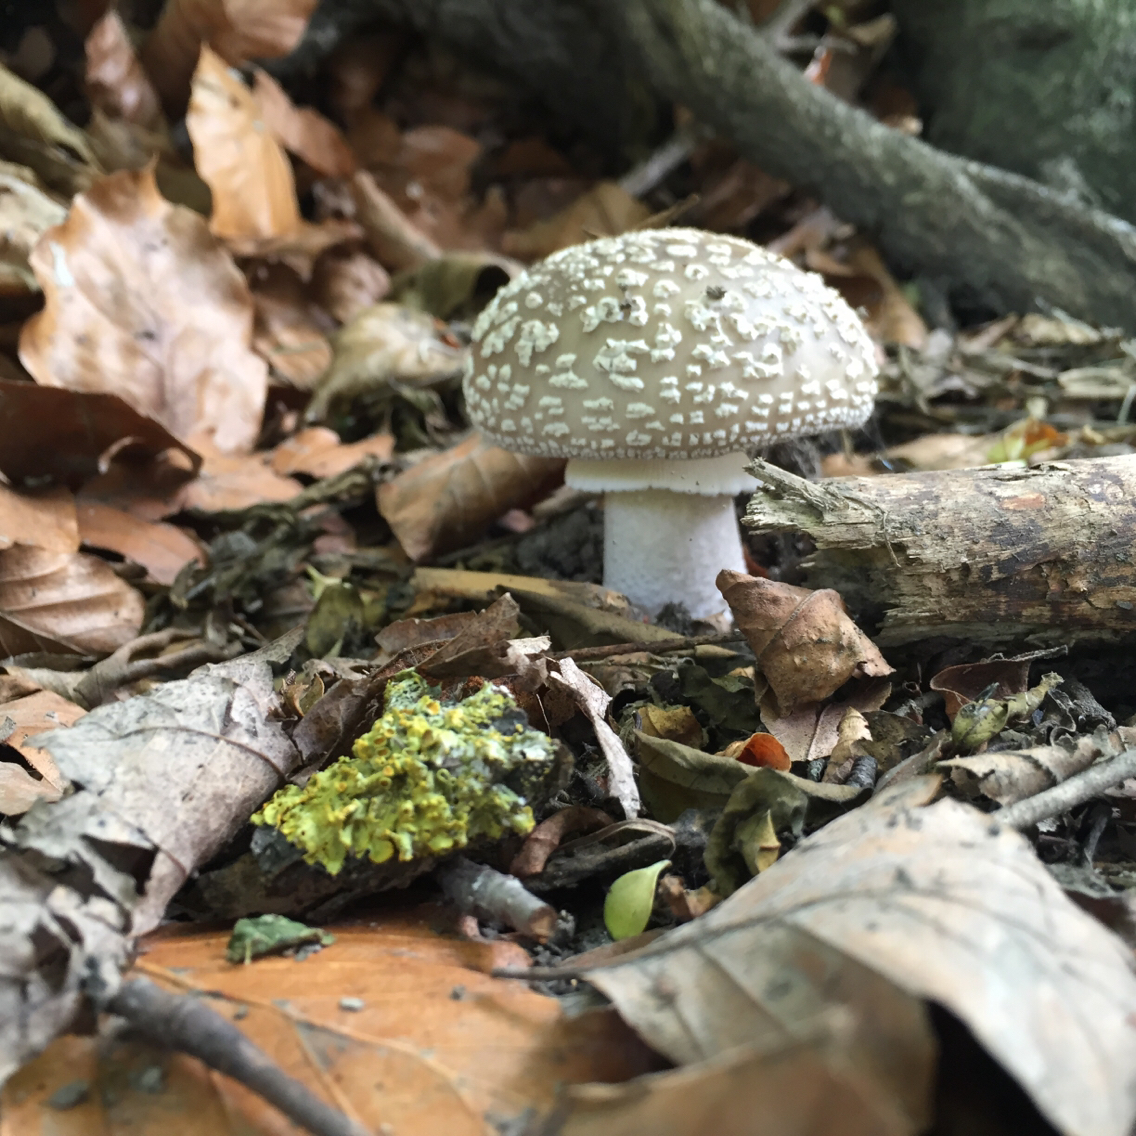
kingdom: Fungi
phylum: Basidiomycota
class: Agaricomycetes
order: Agaricales
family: Amanitaceae
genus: Amanita
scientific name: Amanita excelsa
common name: European false blusher
